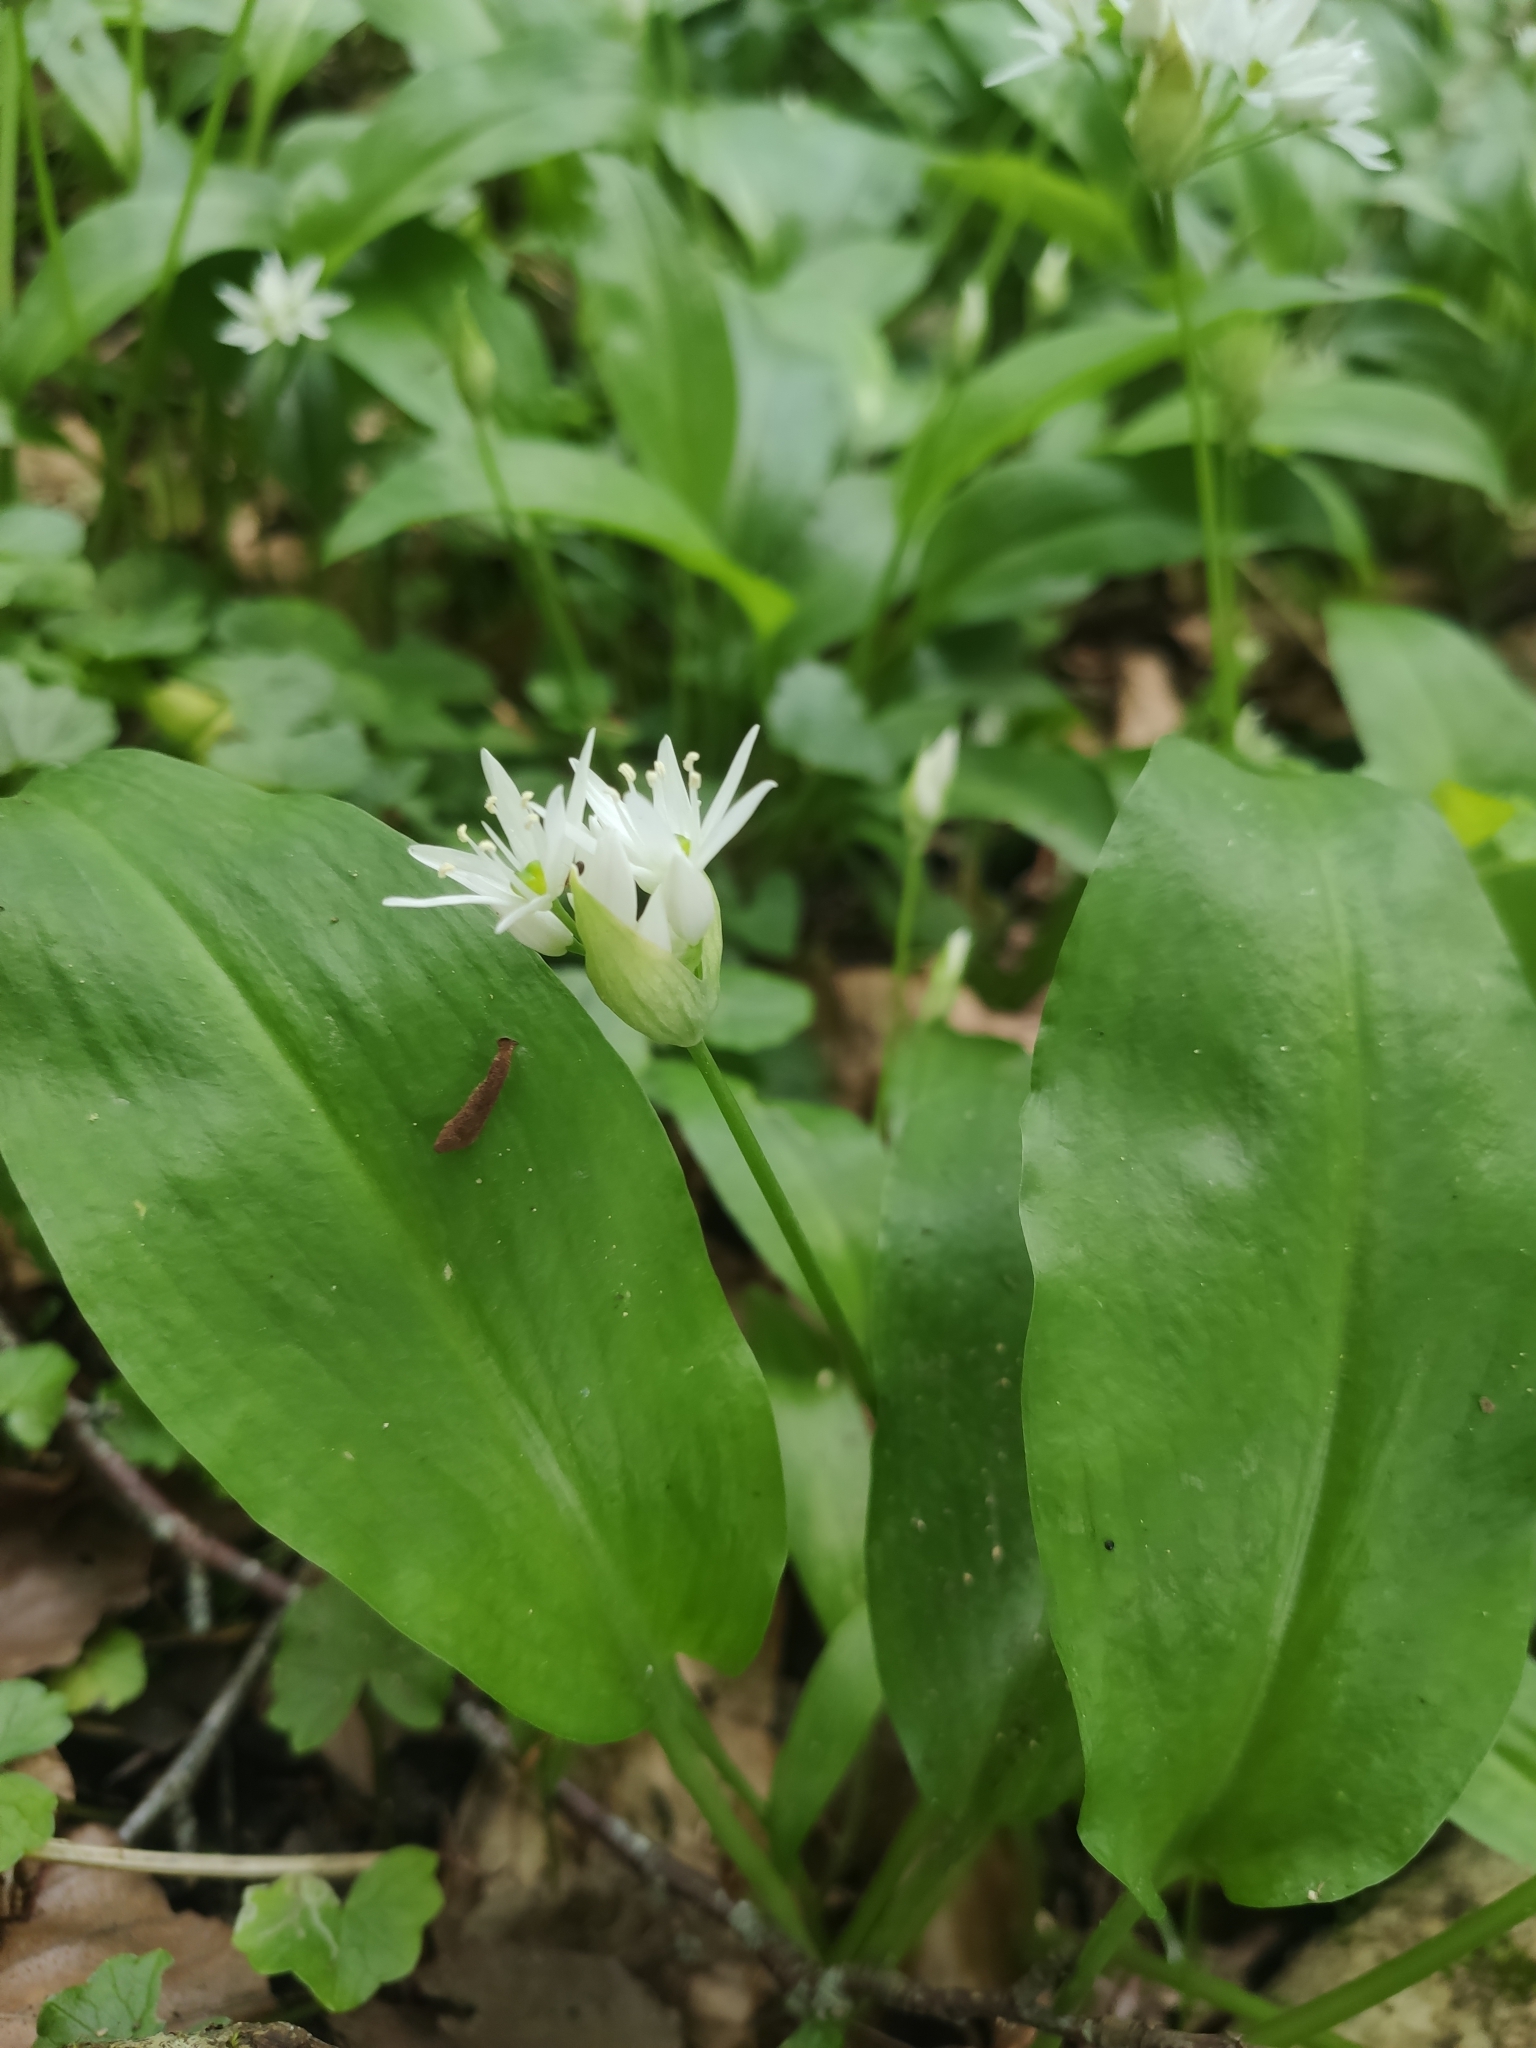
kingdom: Plantae
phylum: Tracheophyta
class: Liliopsida
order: Asparagales
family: Amaryllidaceae
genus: Allium
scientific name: Allium ursinum
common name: Ramsons
